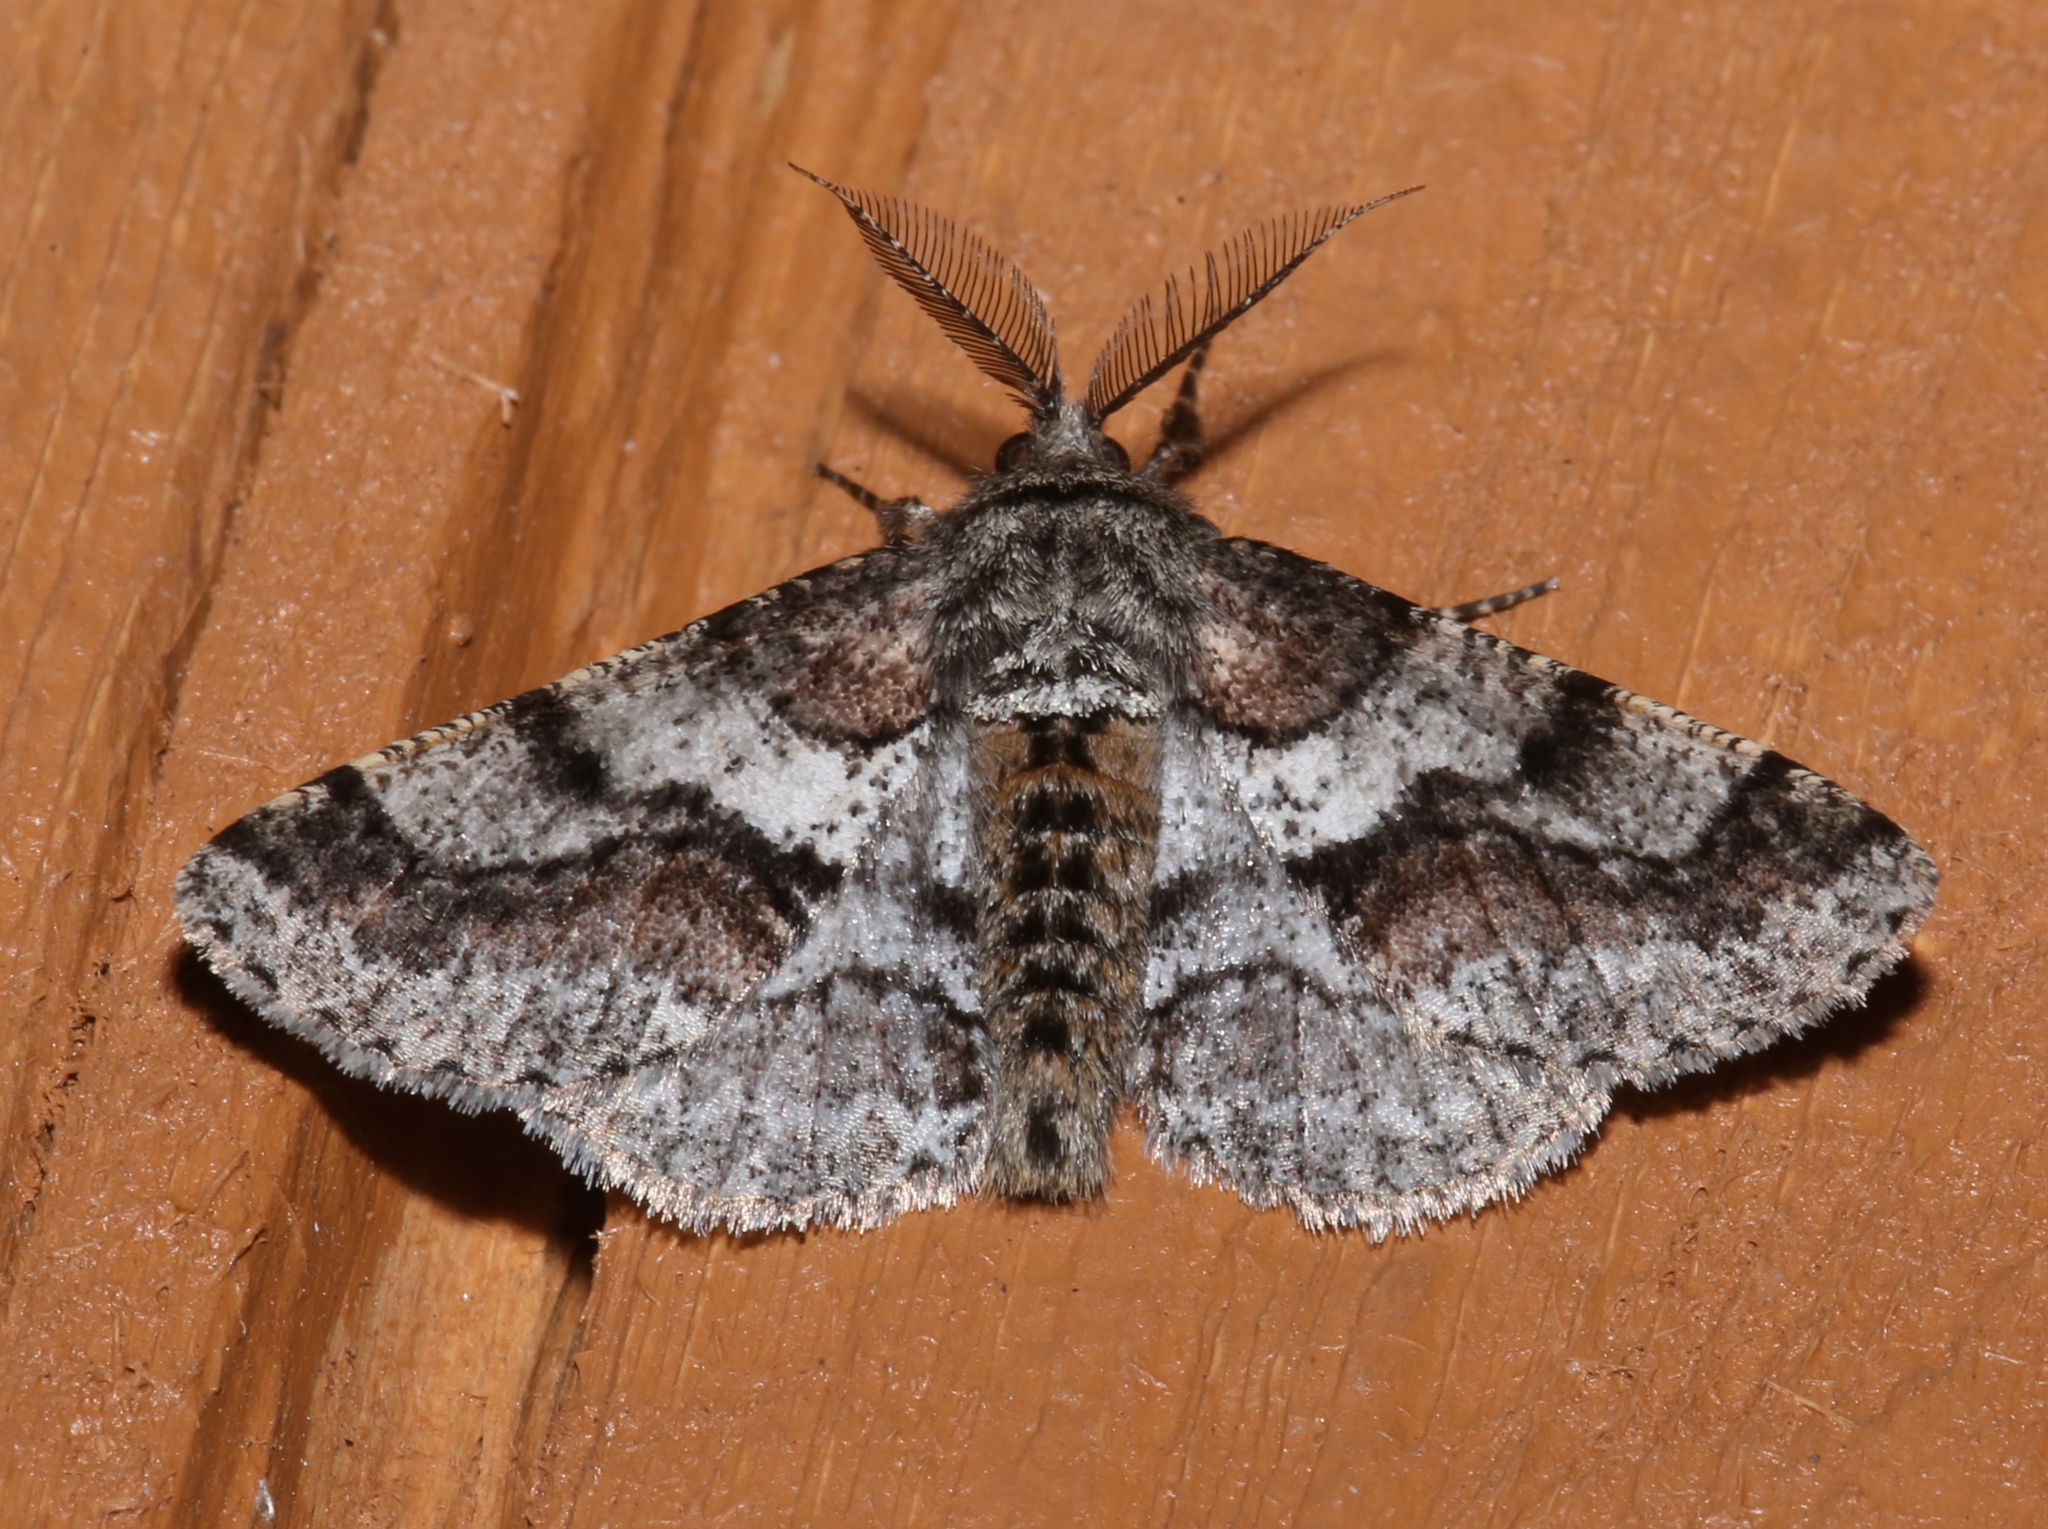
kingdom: Animalia
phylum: Arthropoda
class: Insecta
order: Lepidoptera
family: Geometridae
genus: Lycia
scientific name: Lycia ypsilon
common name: Wooly gray
